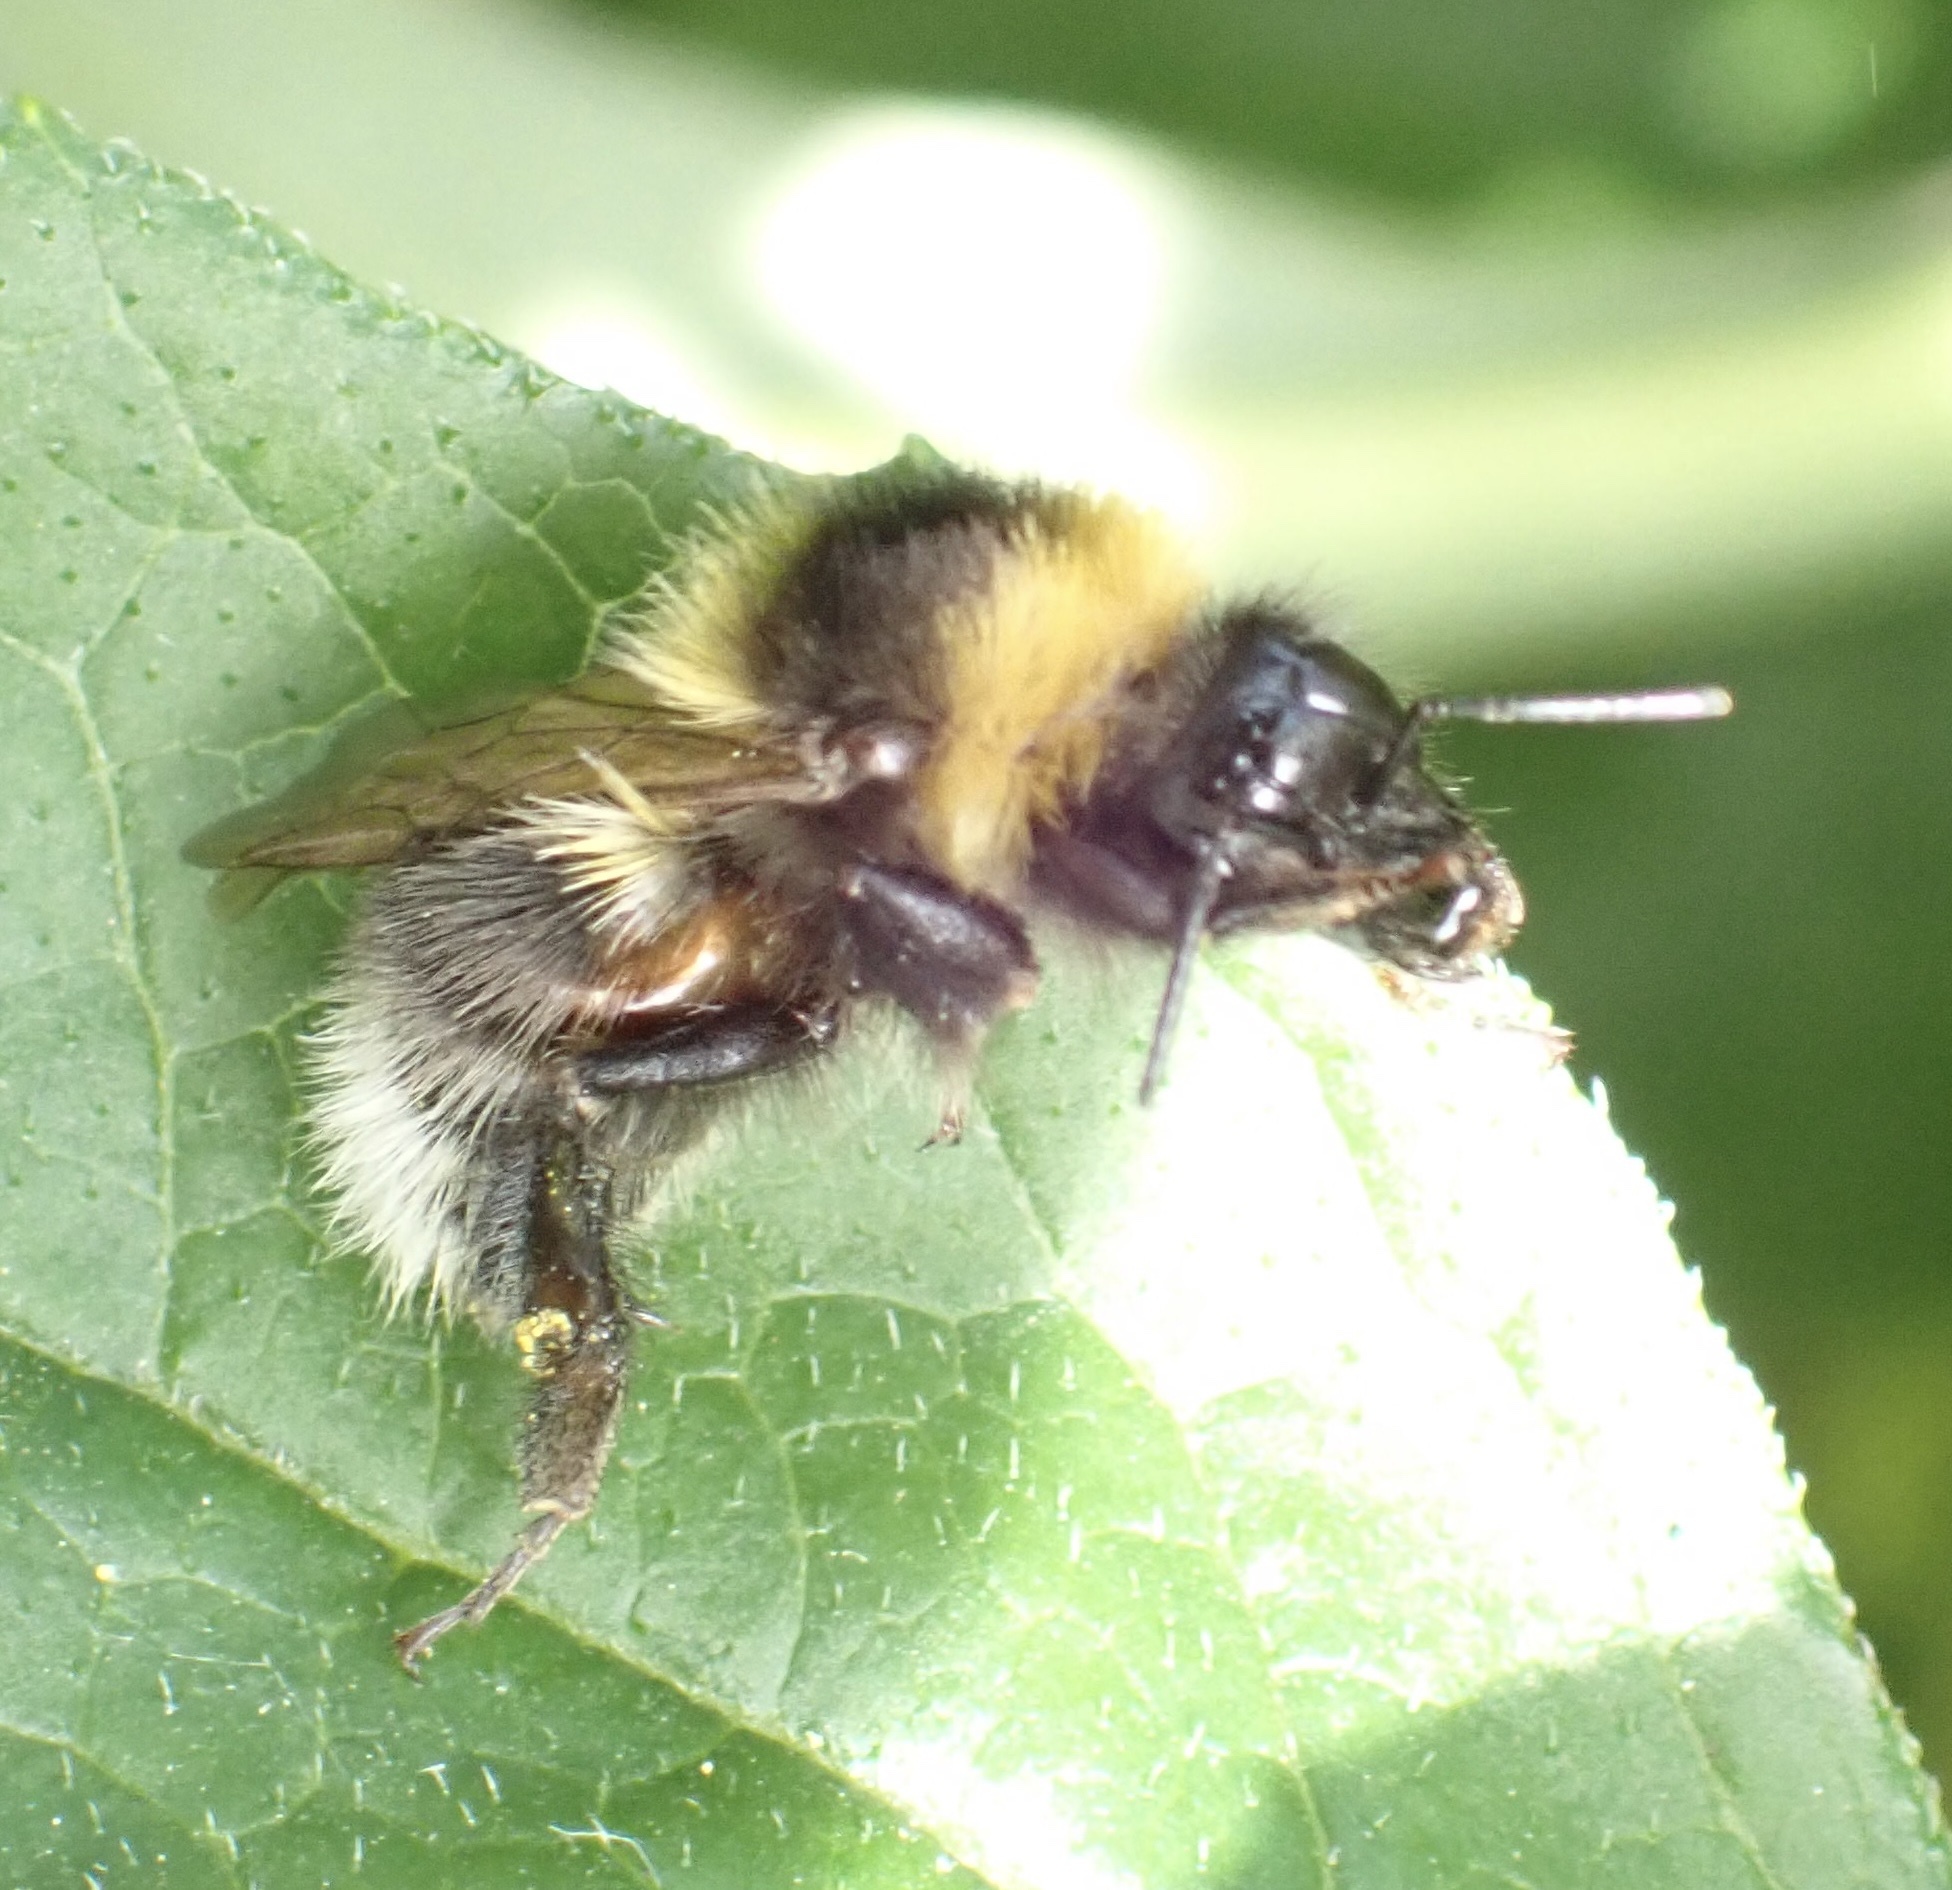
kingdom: Animalia
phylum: Arthropoda
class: Insecta
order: Hymenoptera
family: Apidae
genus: Bombus
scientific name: Bombus hortorum
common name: Garden bumblebee
